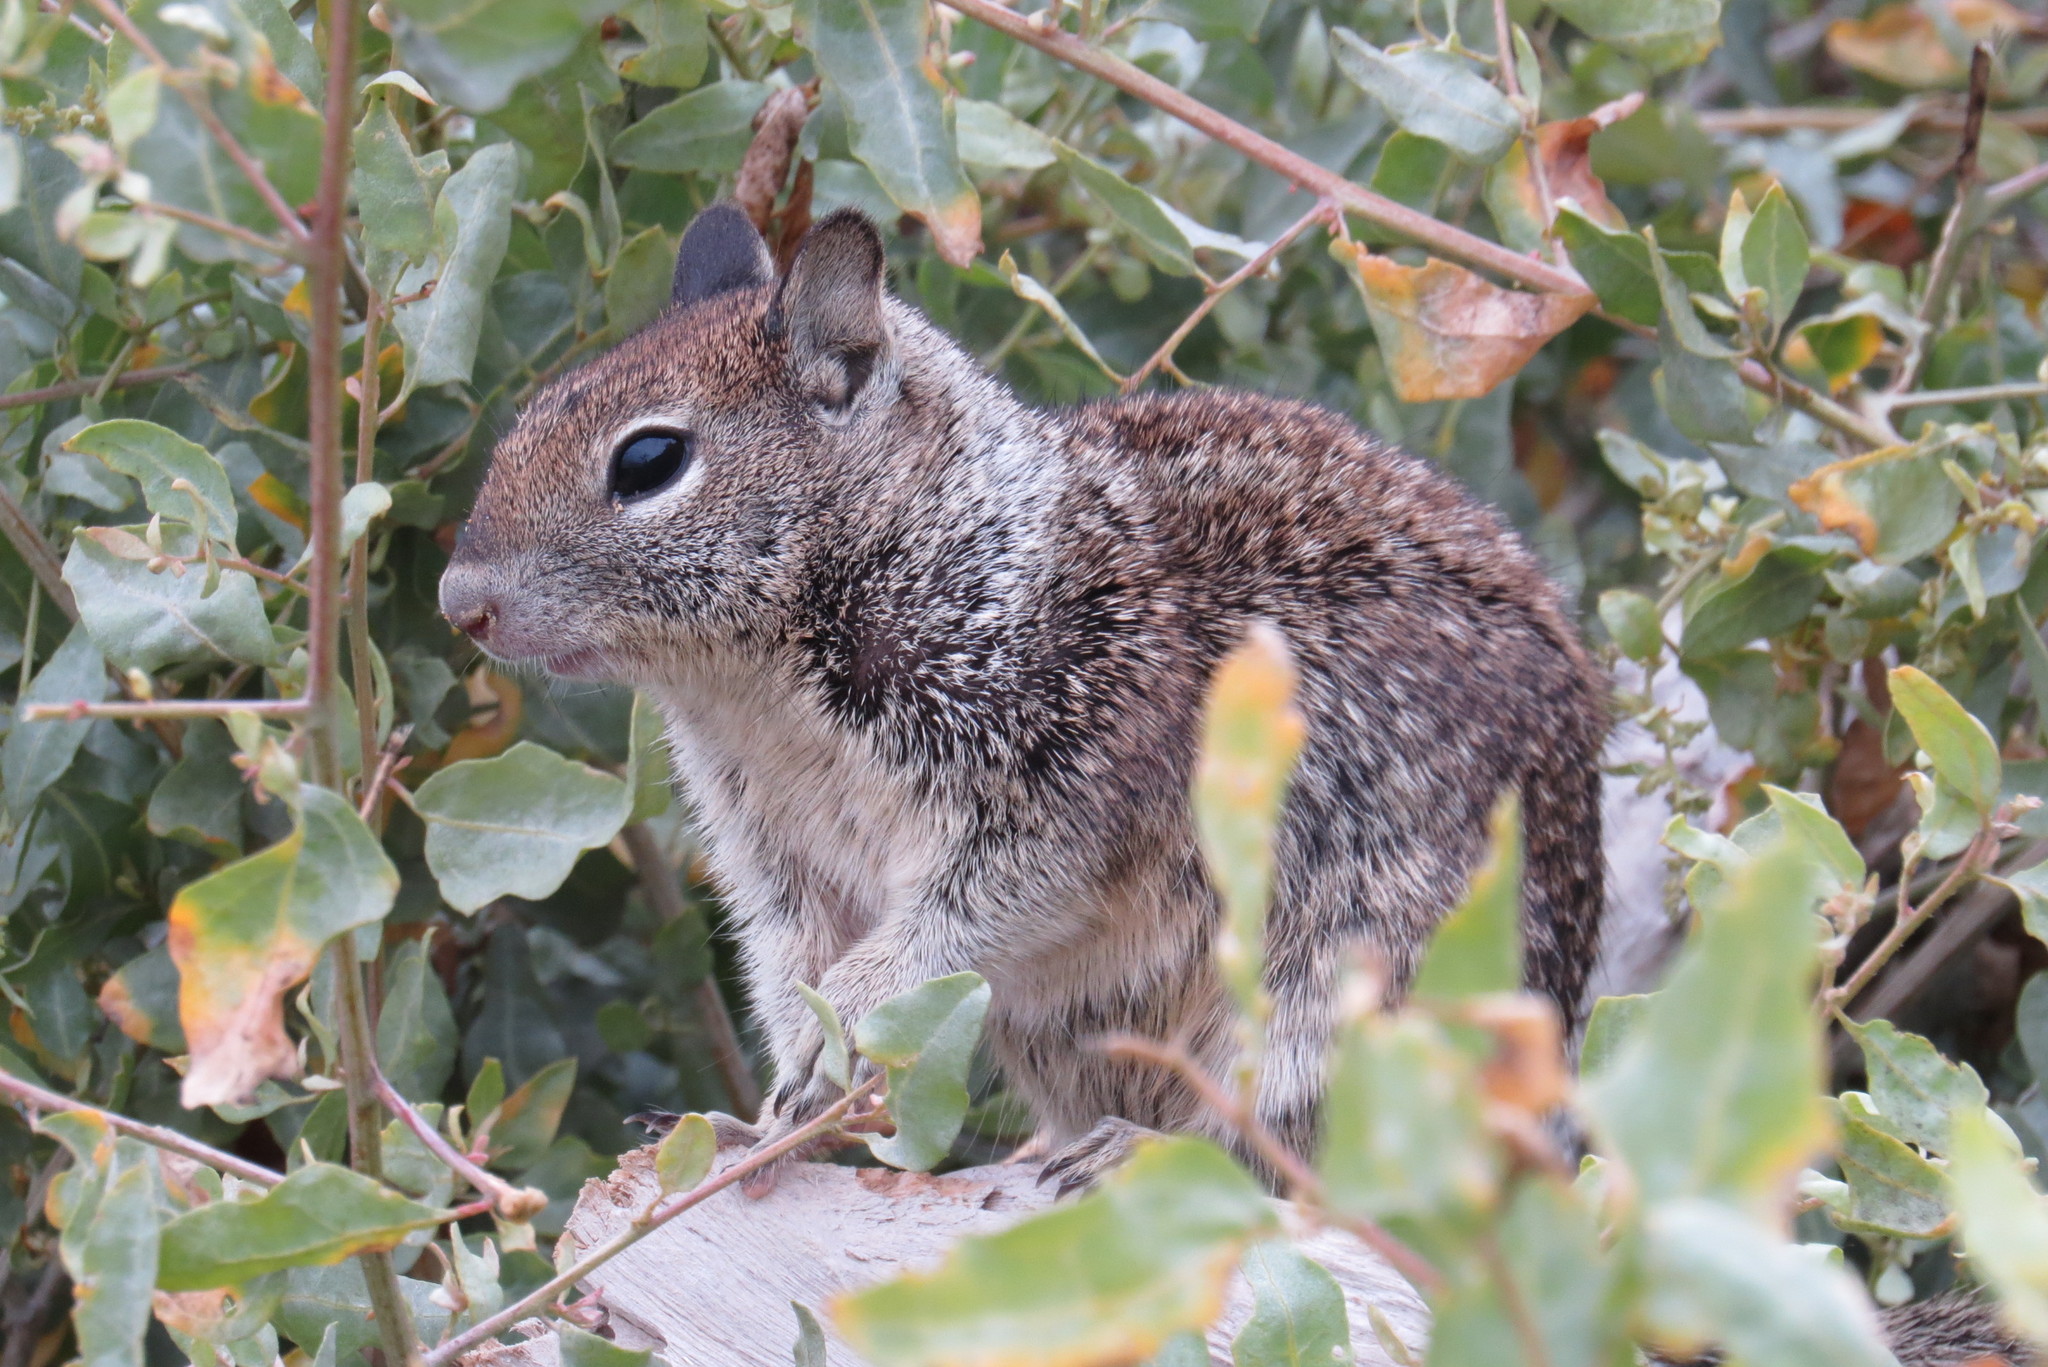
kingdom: Animalia
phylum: Chordata
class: Mammalia
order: Rodentia
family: Sciuridae
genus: Otospermophilus
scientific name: Otospermophilus beecheyi
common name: California ground squirrel
